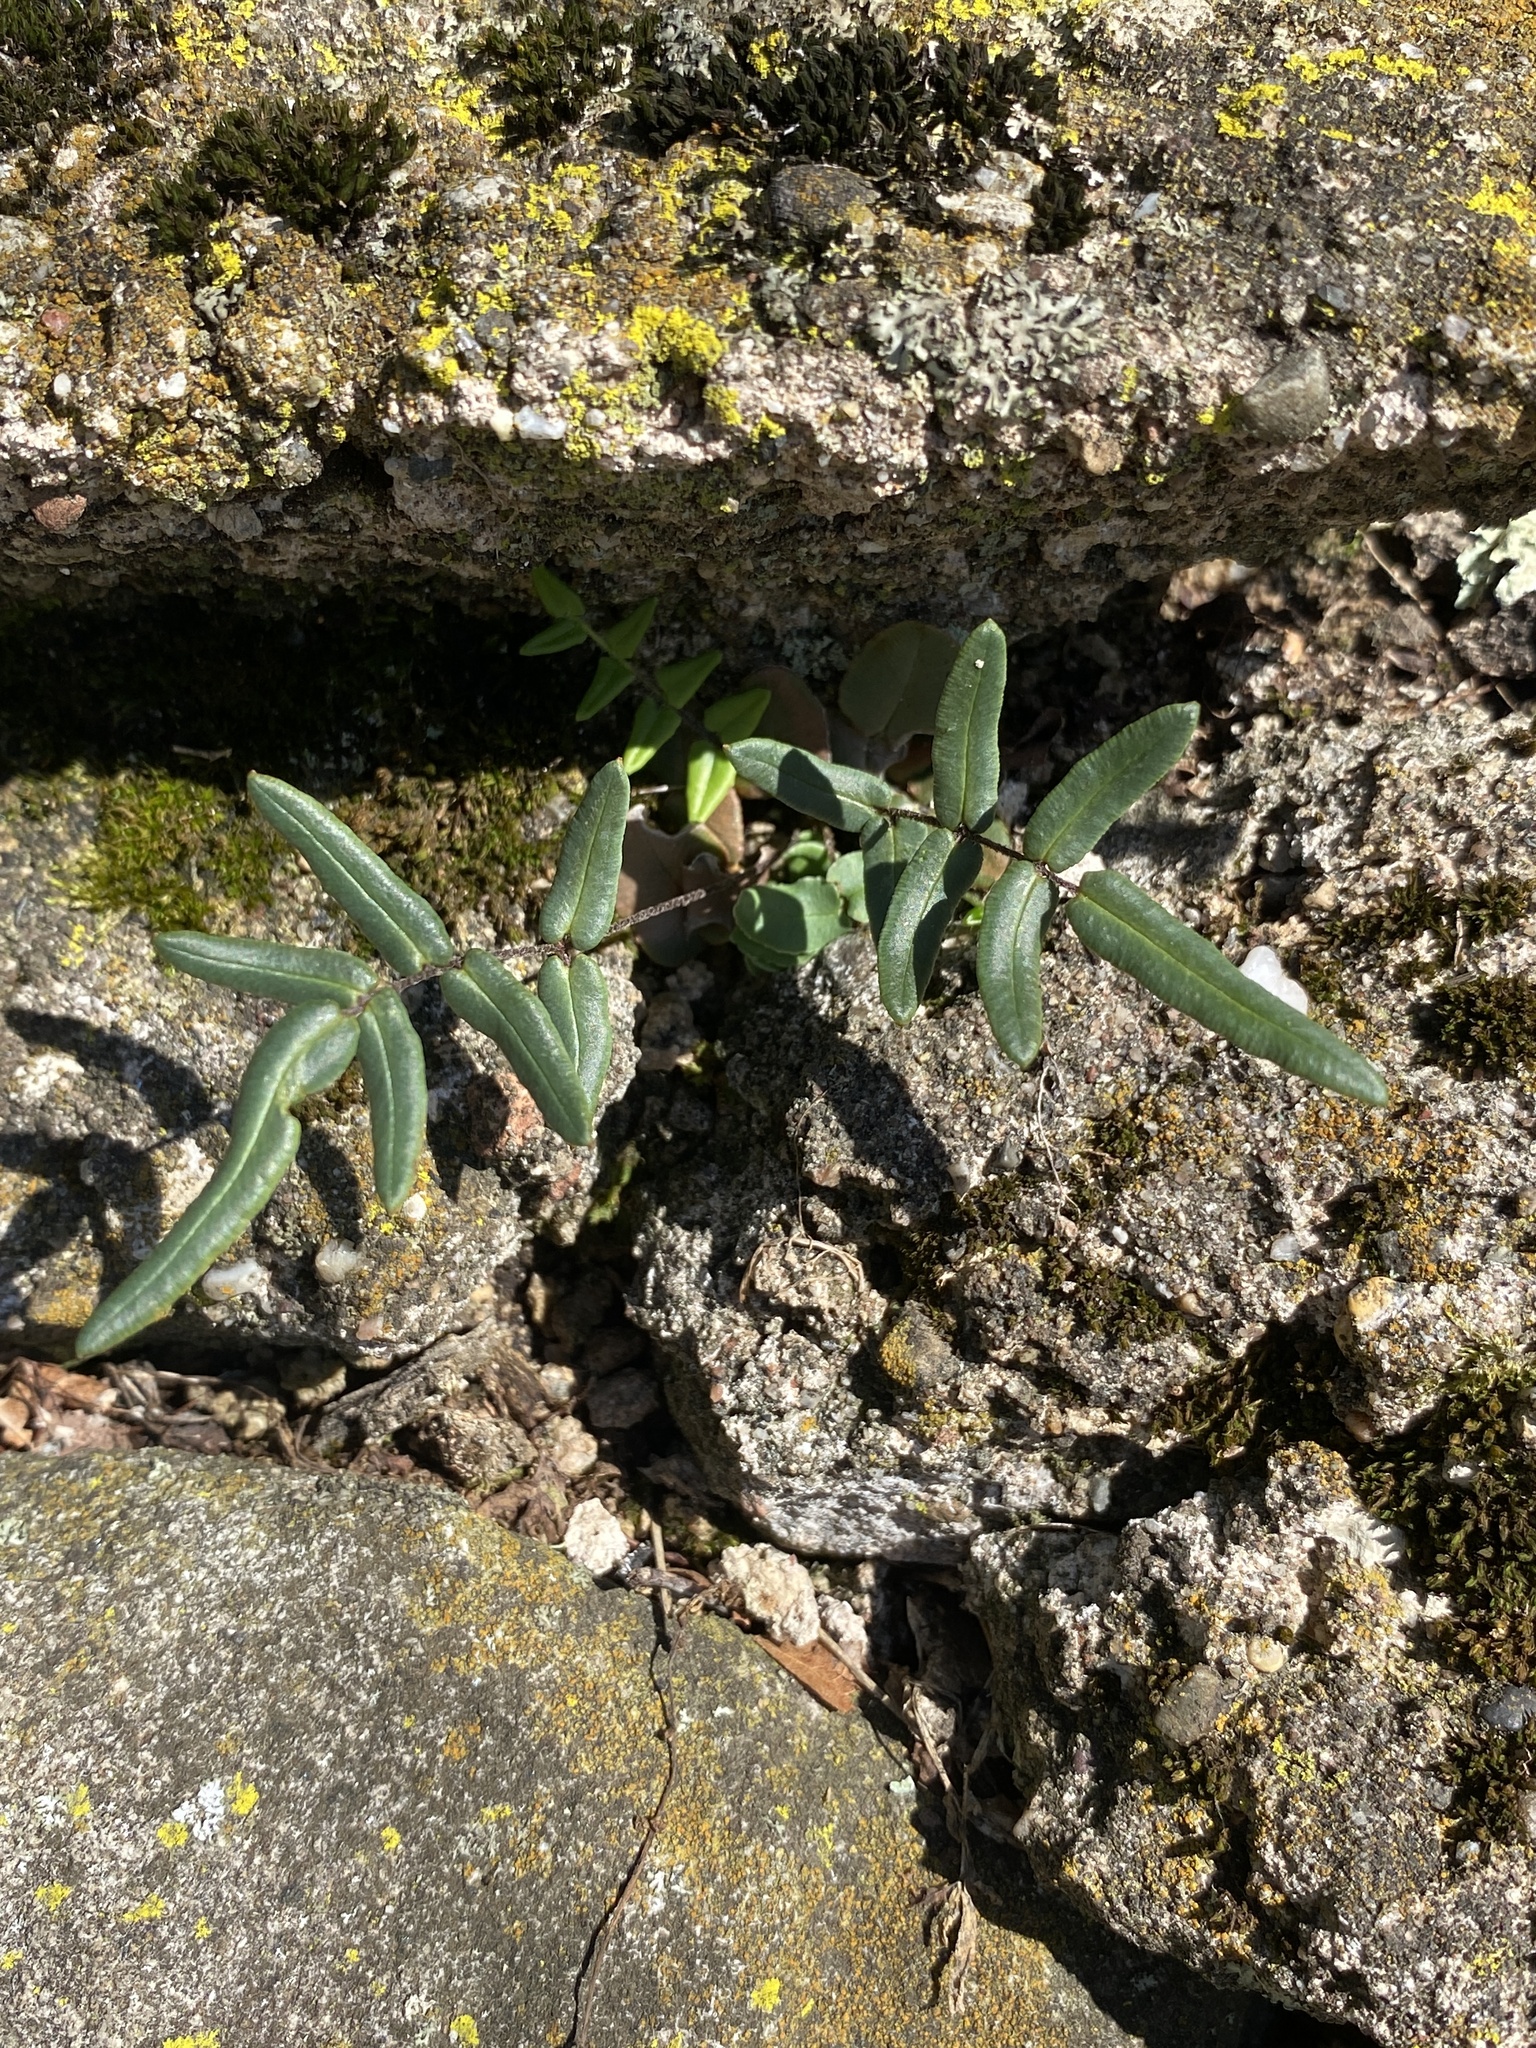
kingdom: Plantae
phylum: Tracheophyta
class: Polypodiopsida
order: Polypodiales
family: Pteridaceae
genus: Pellaea
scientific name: Pellaea atropurpurea
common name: Hairy cliffbrake
